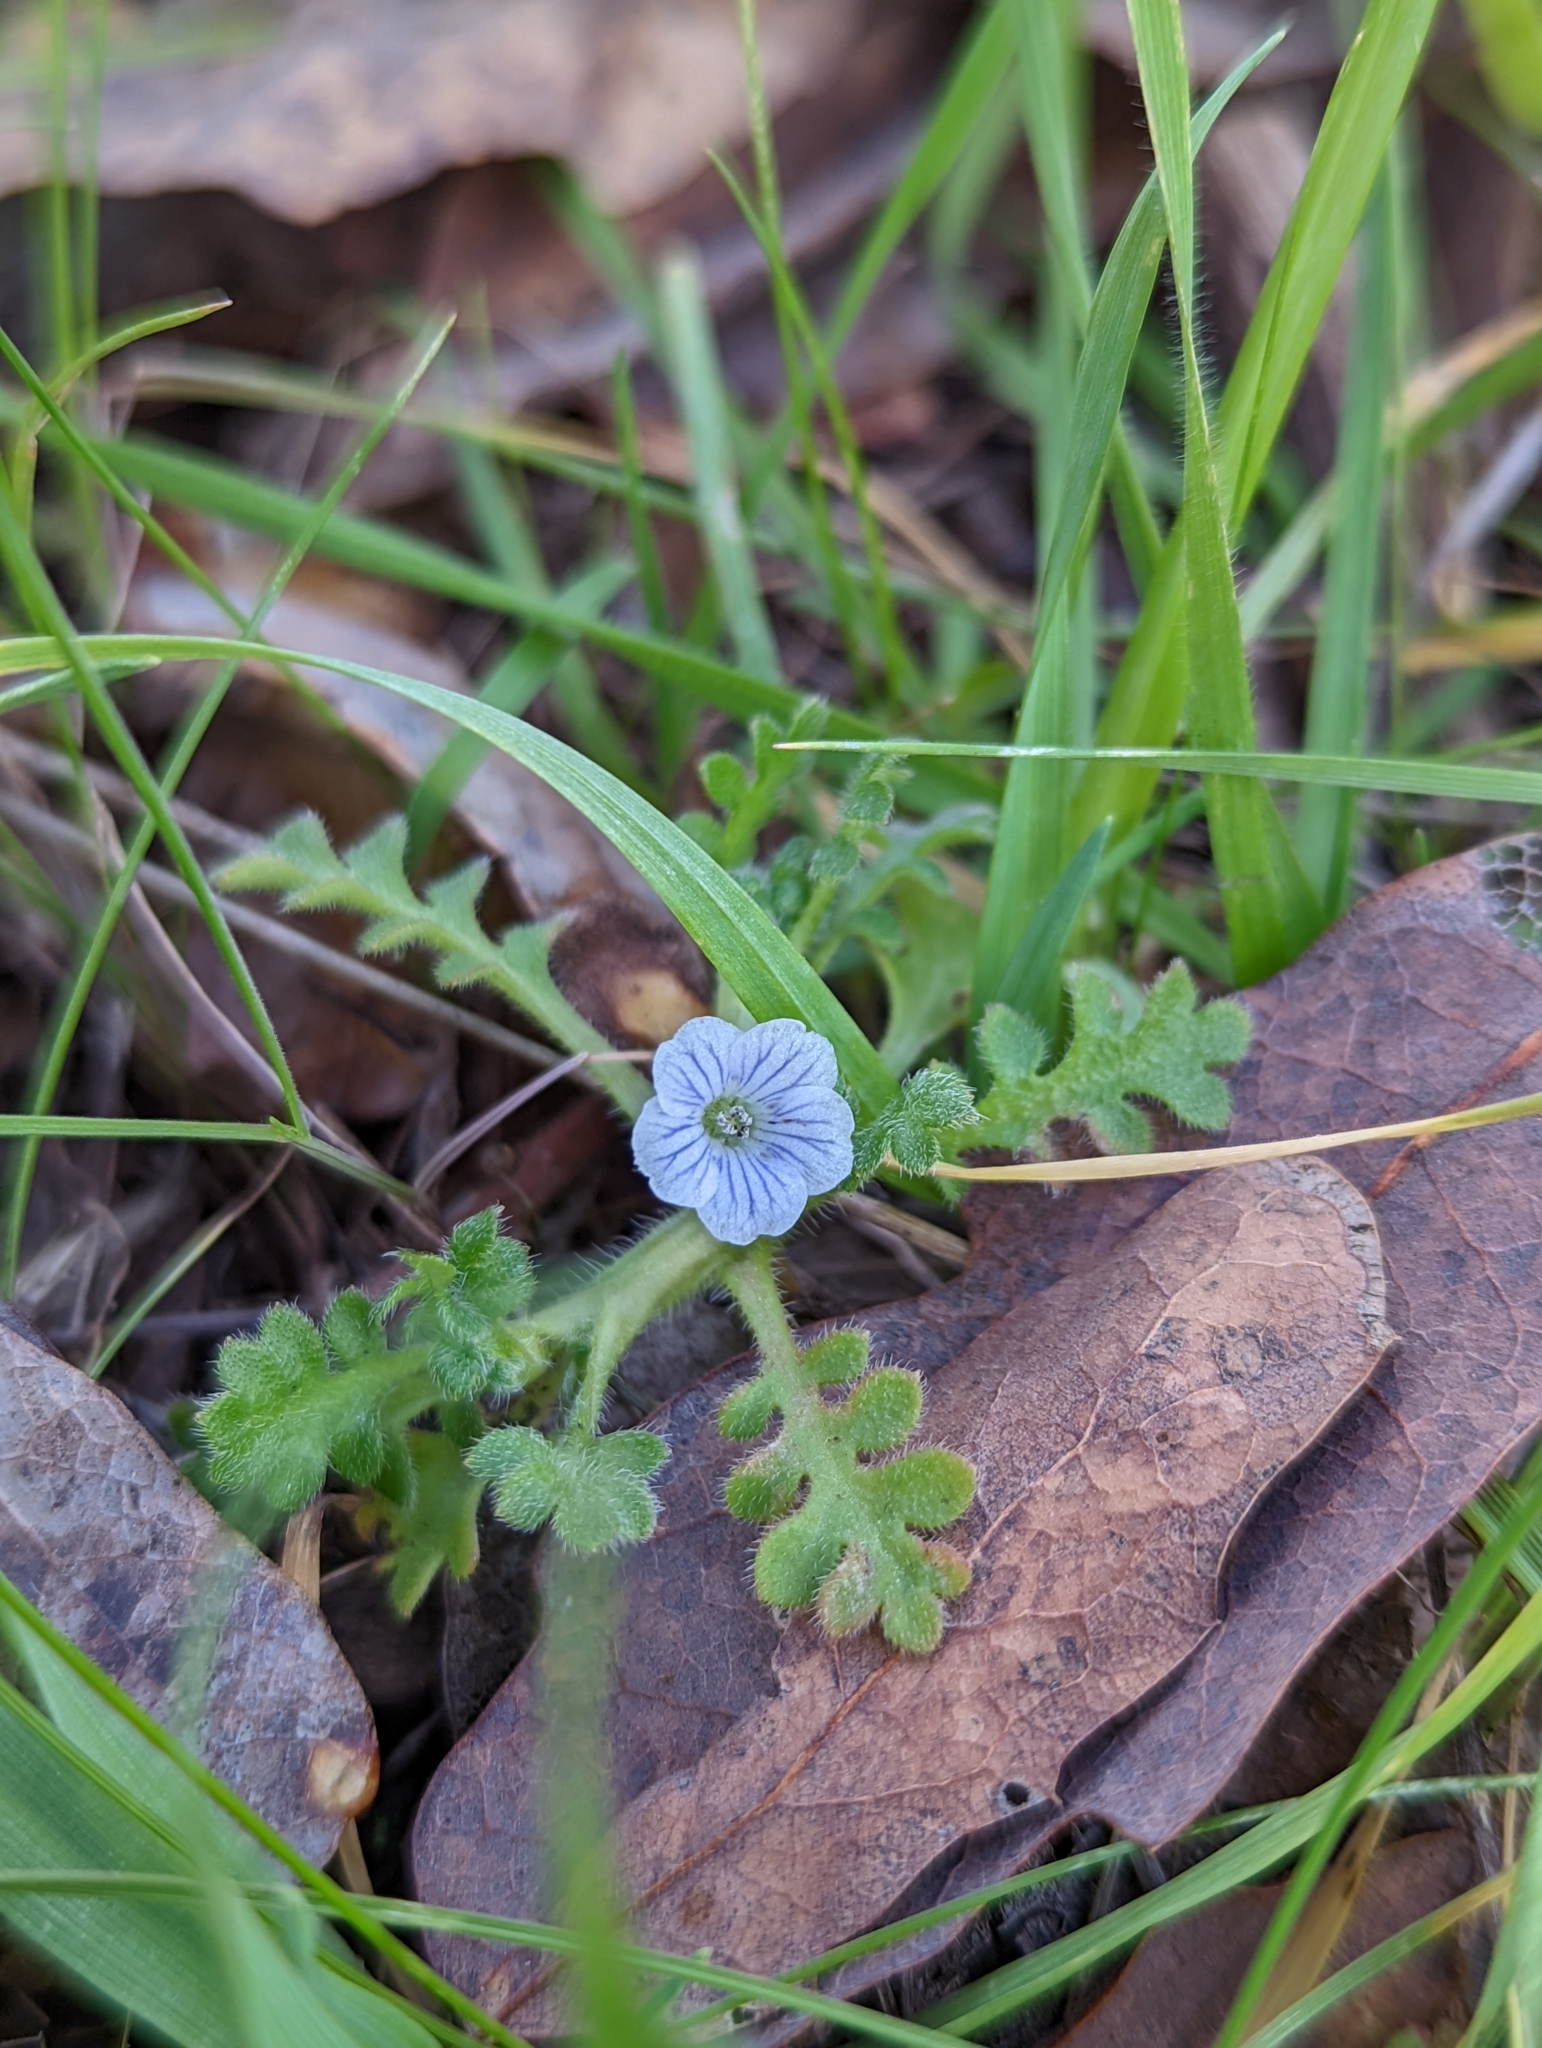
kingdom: Plantae
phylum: Tracheophyta
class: Magnoliopsida
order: Boraginales
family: Hydrophyllaceae
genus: Nemophila
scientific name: Nemophila pedunculata
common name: Little-foot baby-blue-eyes
